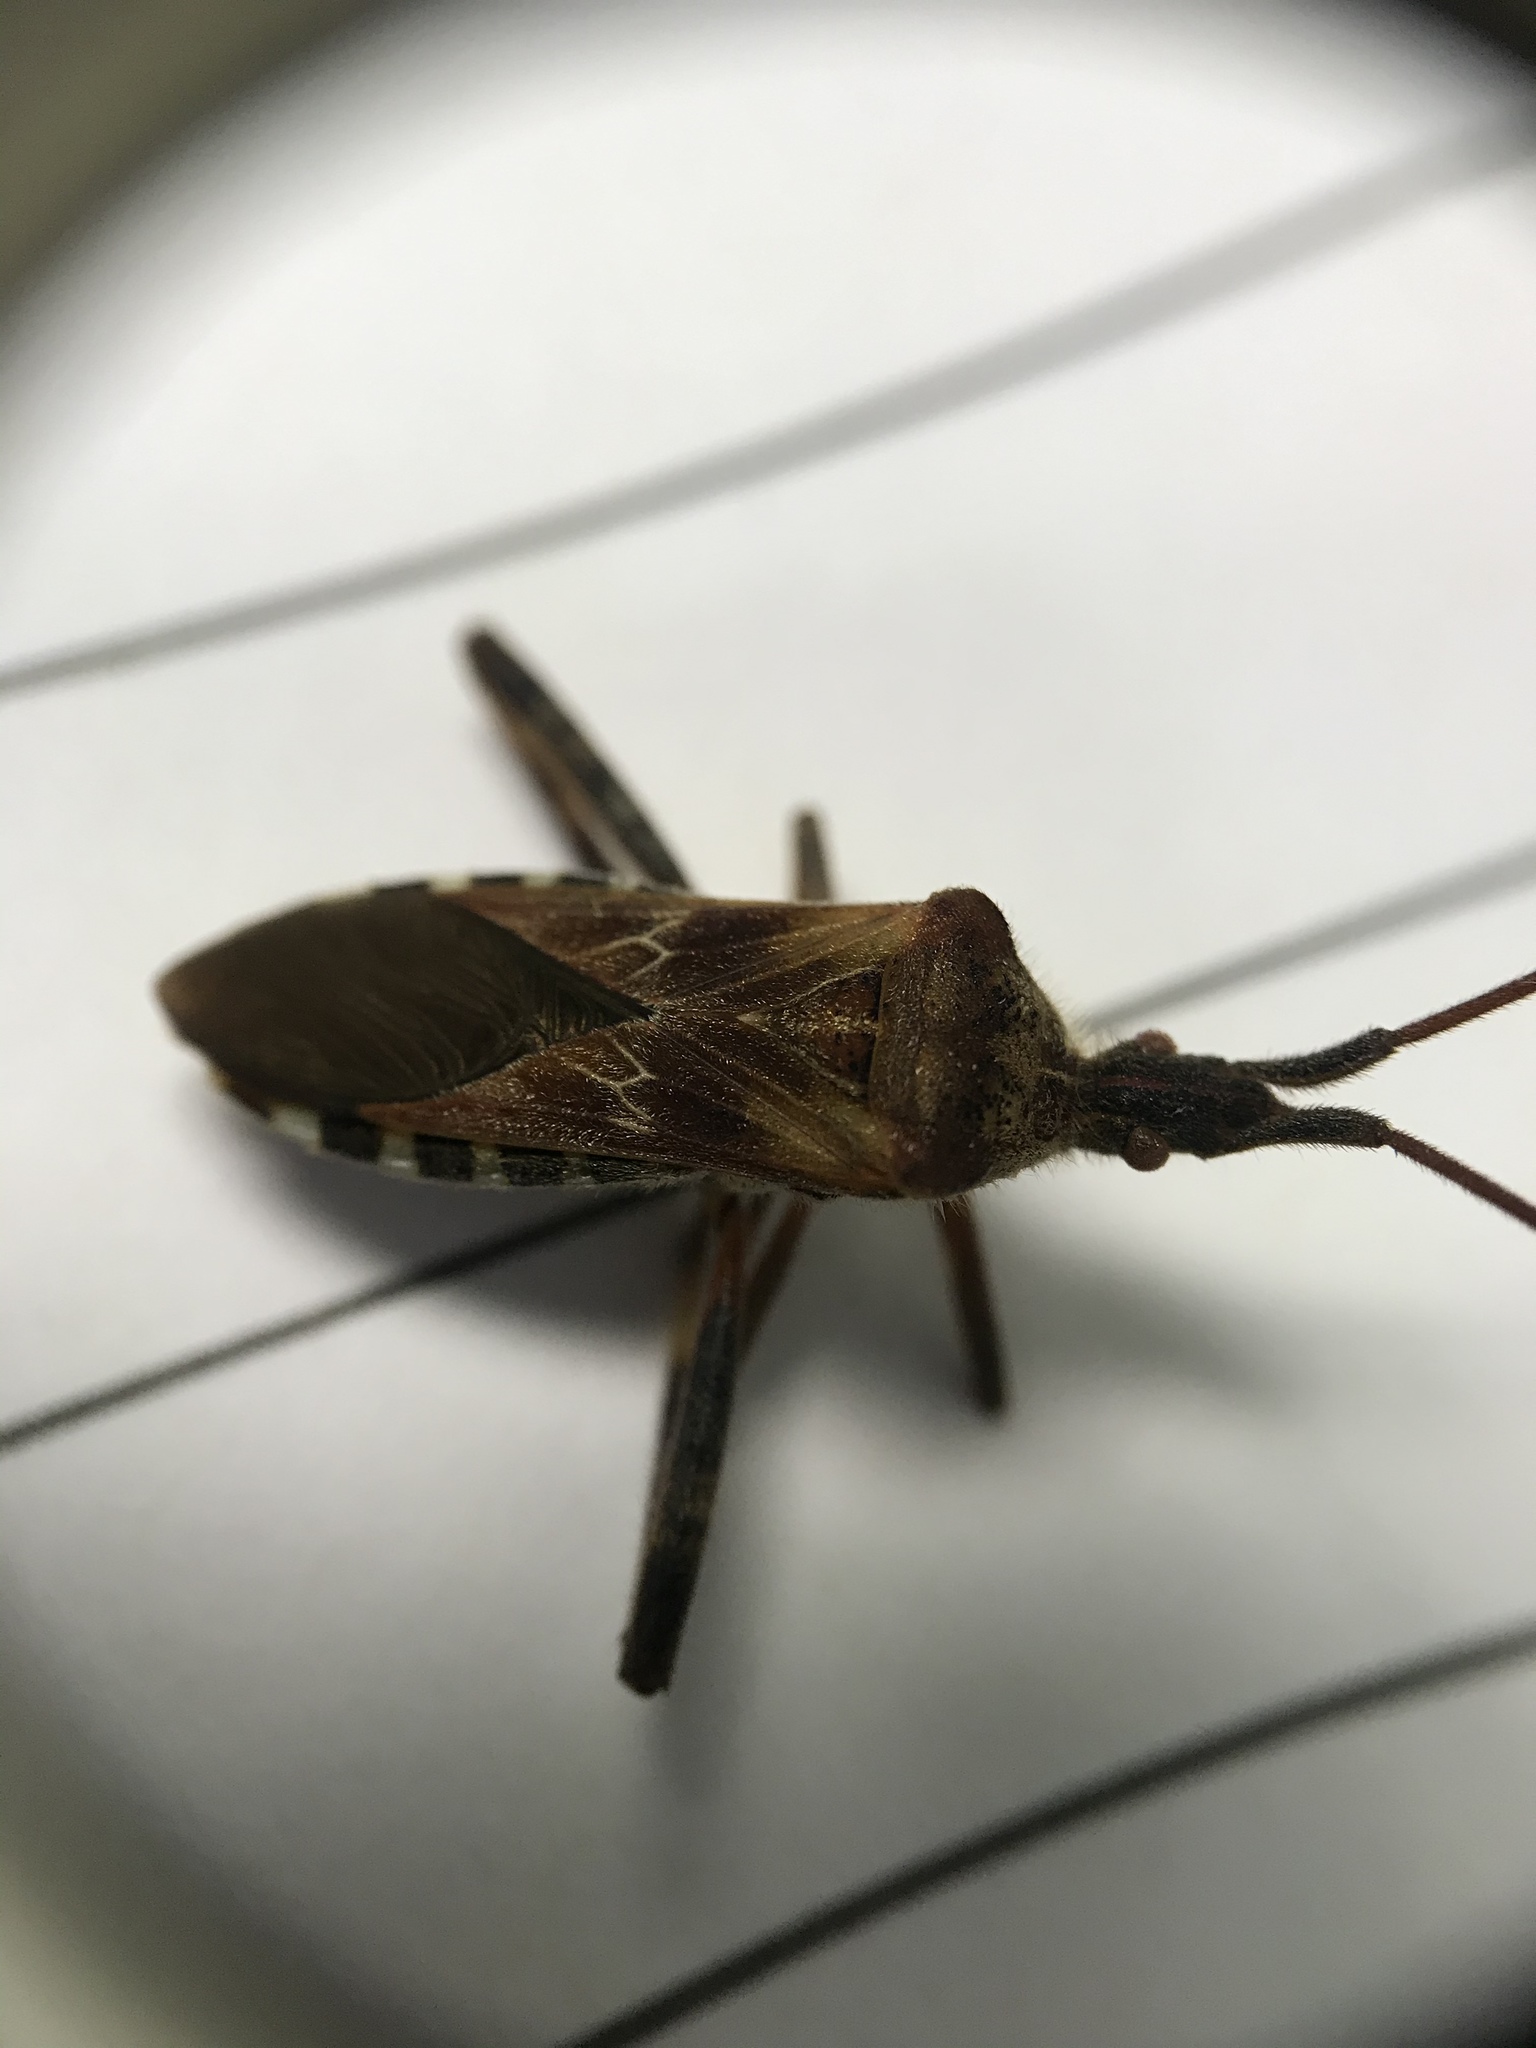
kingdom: Animalia
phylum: Arthropoda
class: Insecta
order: Hemiptera
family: Coreidae
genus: Leptoglossus
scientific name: Leptoglossus occidentalis
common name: Western conifer-seed bug
